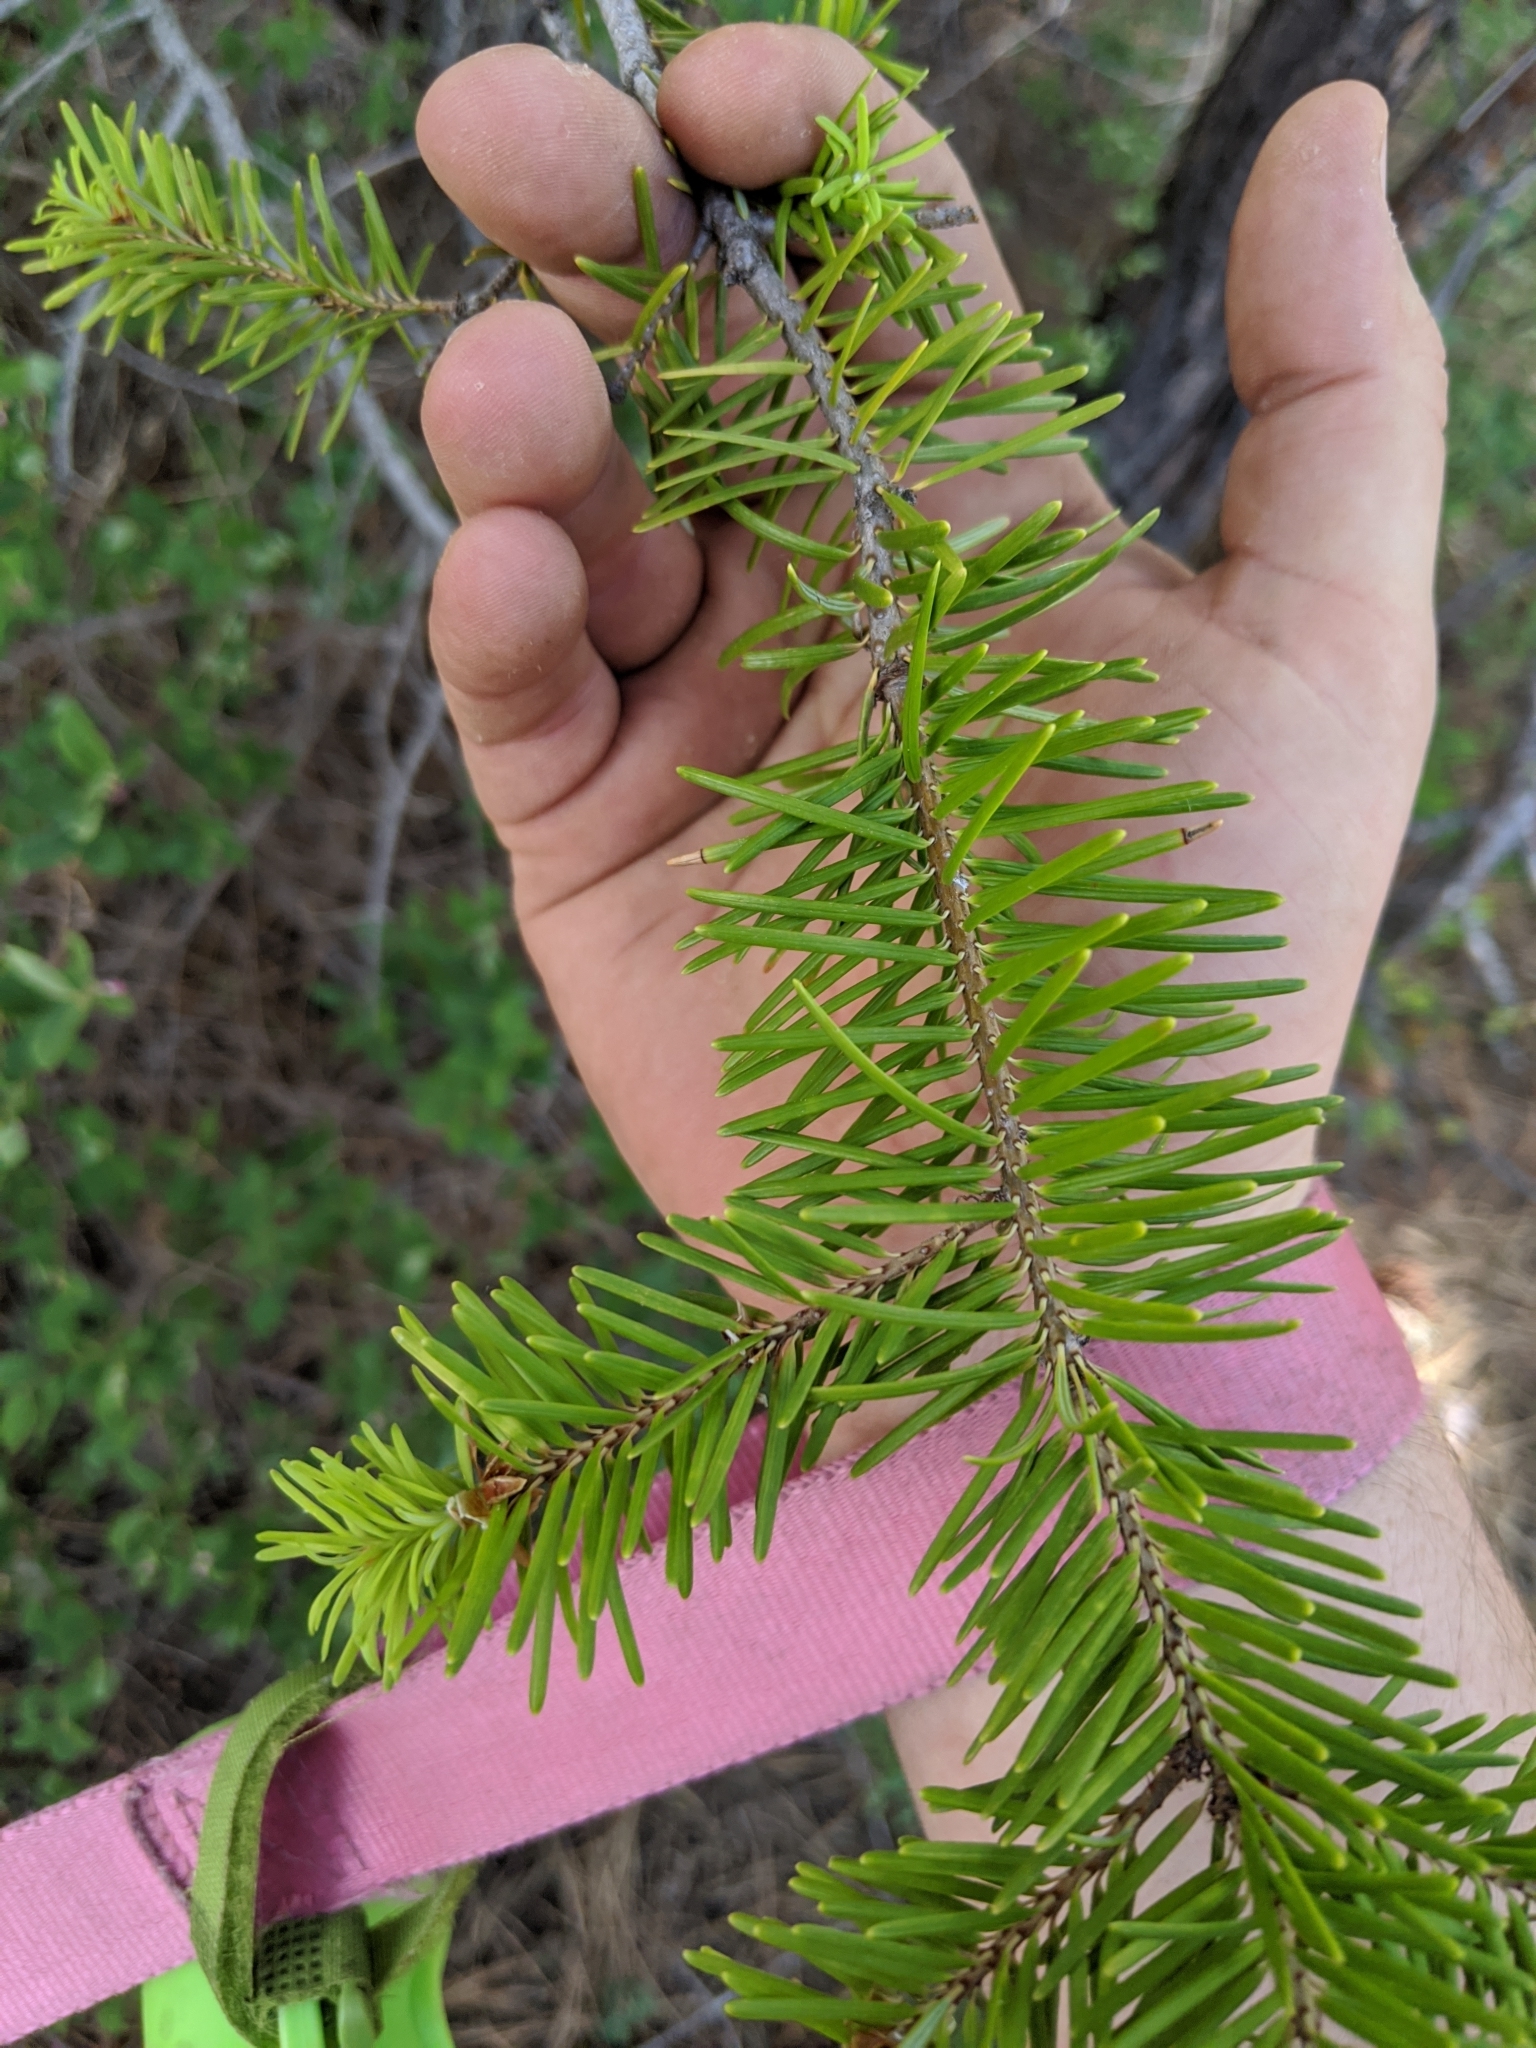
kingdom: Plantae
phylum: Tracheophyta
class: Pinopsida
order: Pinales
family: Pinaceae
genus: Pseudotsuga
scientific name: Pseudotsuga menziesii
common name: Douglas fir
